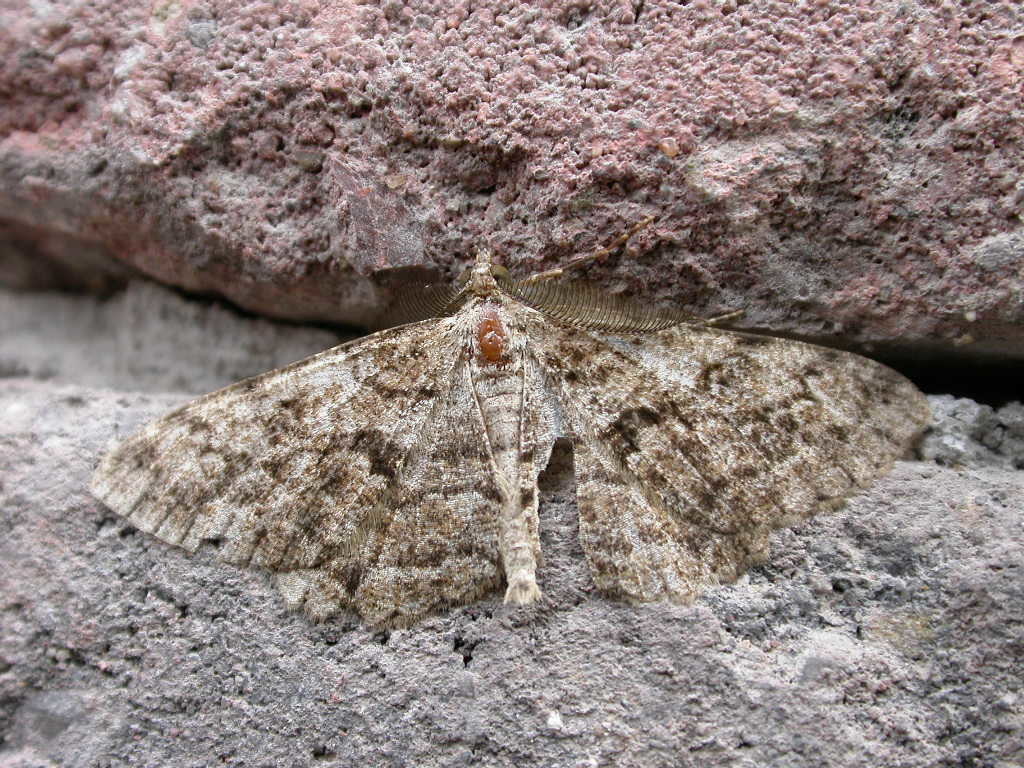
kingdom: Animalia
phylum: Arthropoda
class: Insecta
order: Lepidoptera
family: Geometridae
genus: Peribatodes
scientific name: Peribatodes secundaria
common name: Feathered beauty
